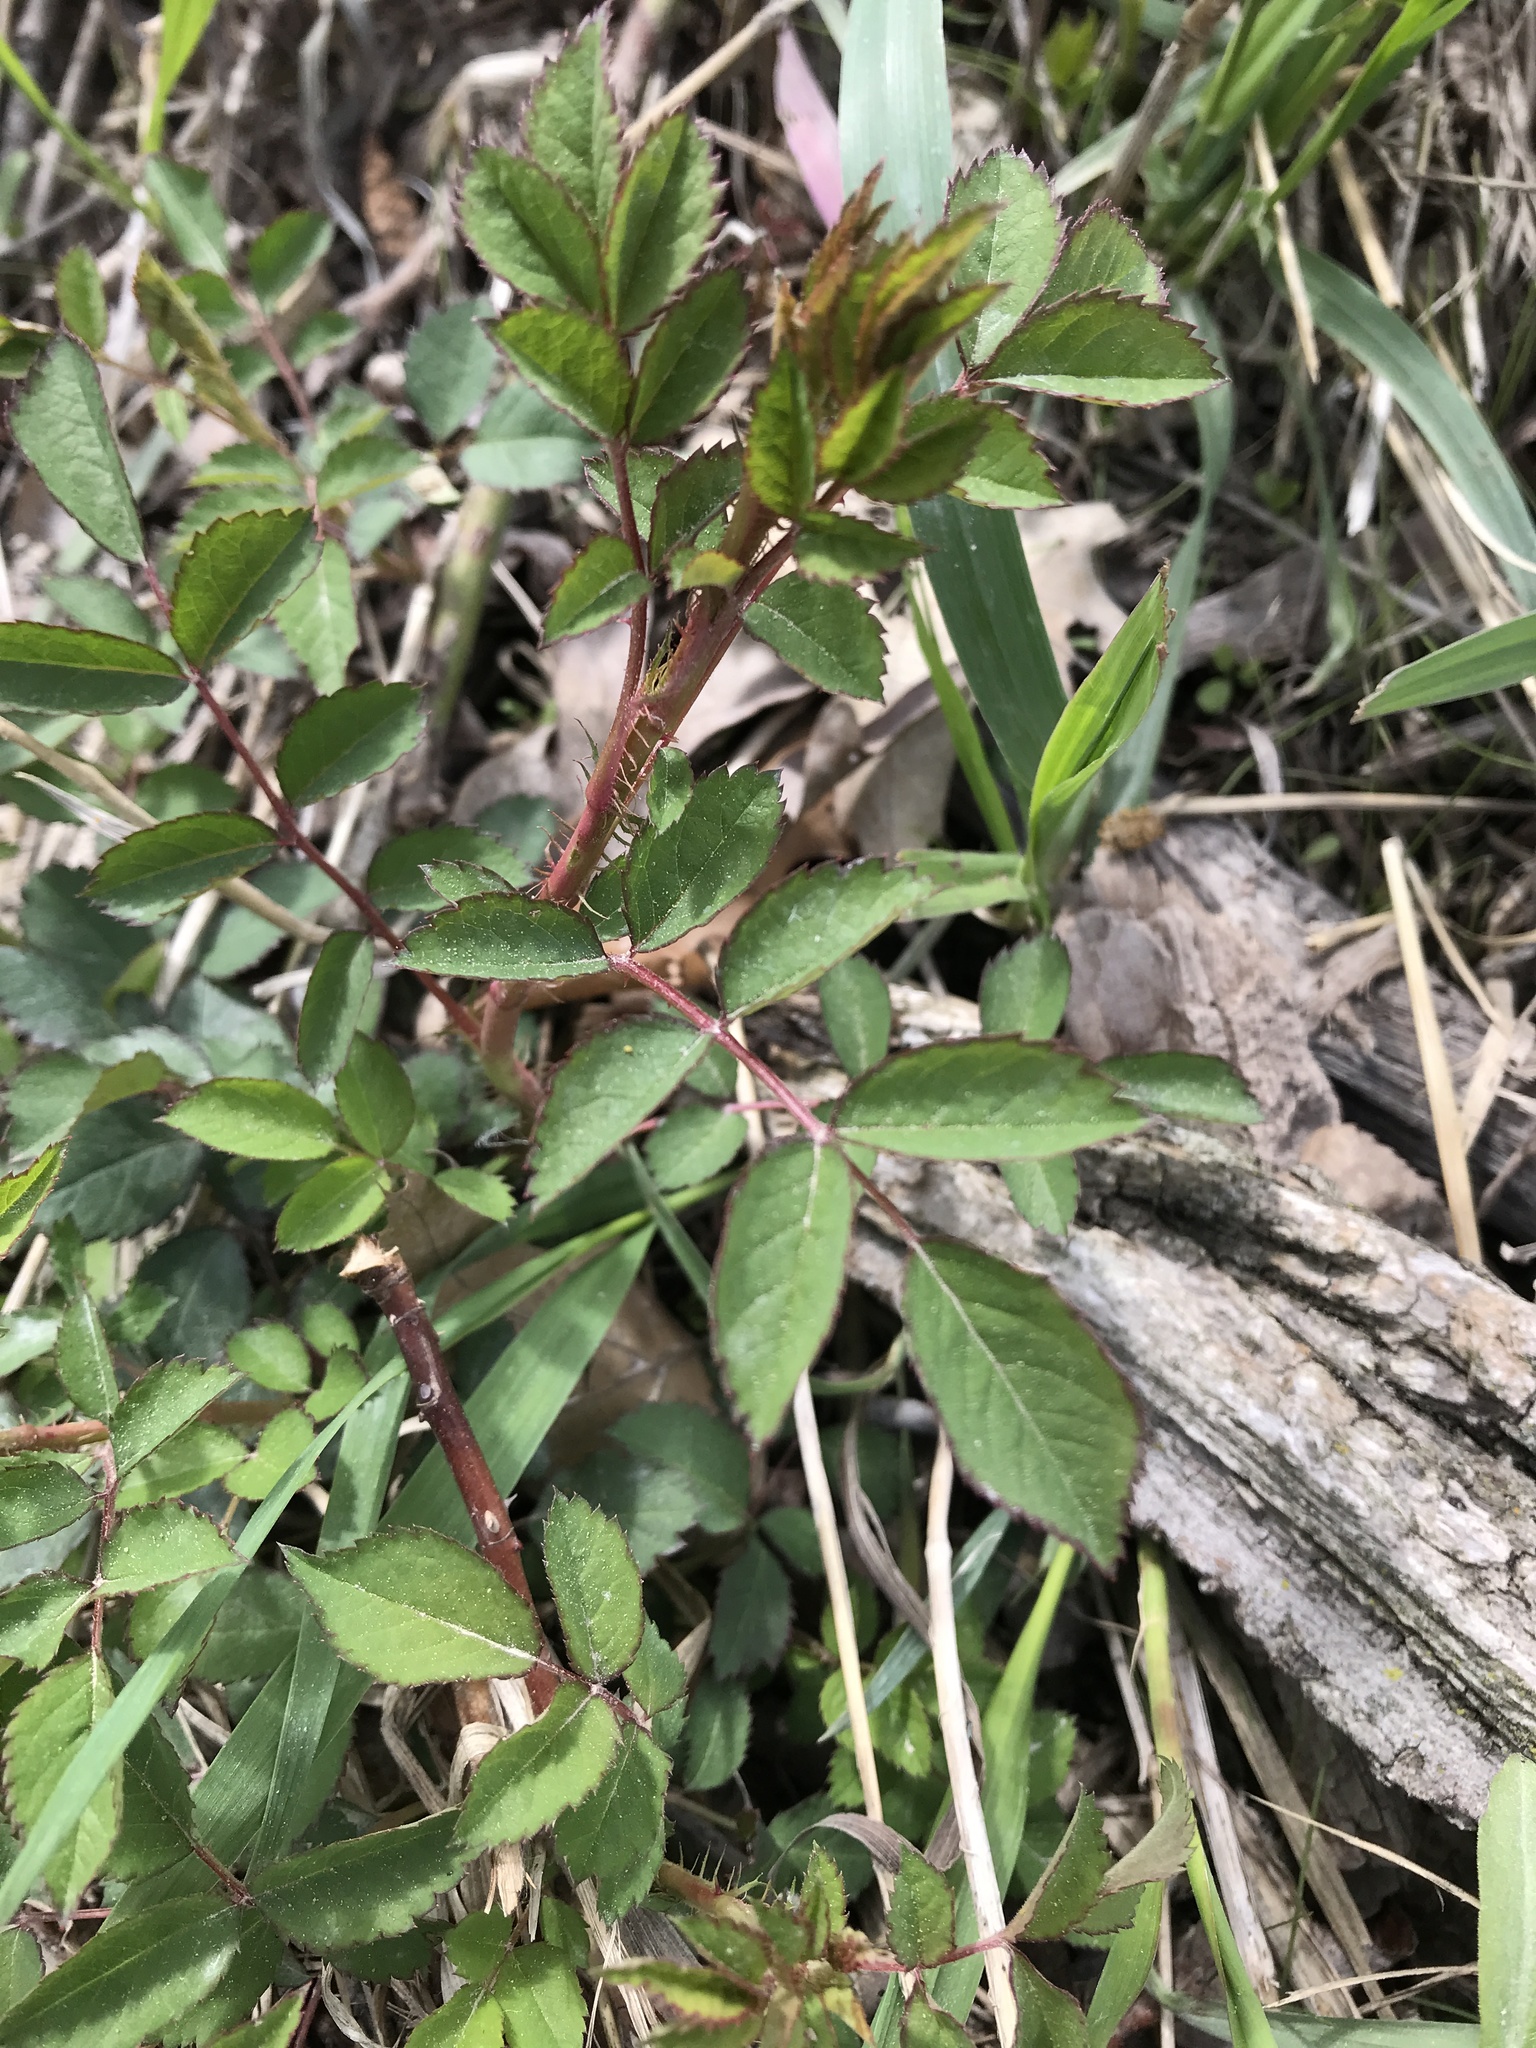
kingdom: Plantae
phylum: Tracheophyta
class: Magnoliopsida
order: Rosales
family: Rosaceae
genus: Rosa
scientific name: Rosa multiflora
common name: Multiflora rose
